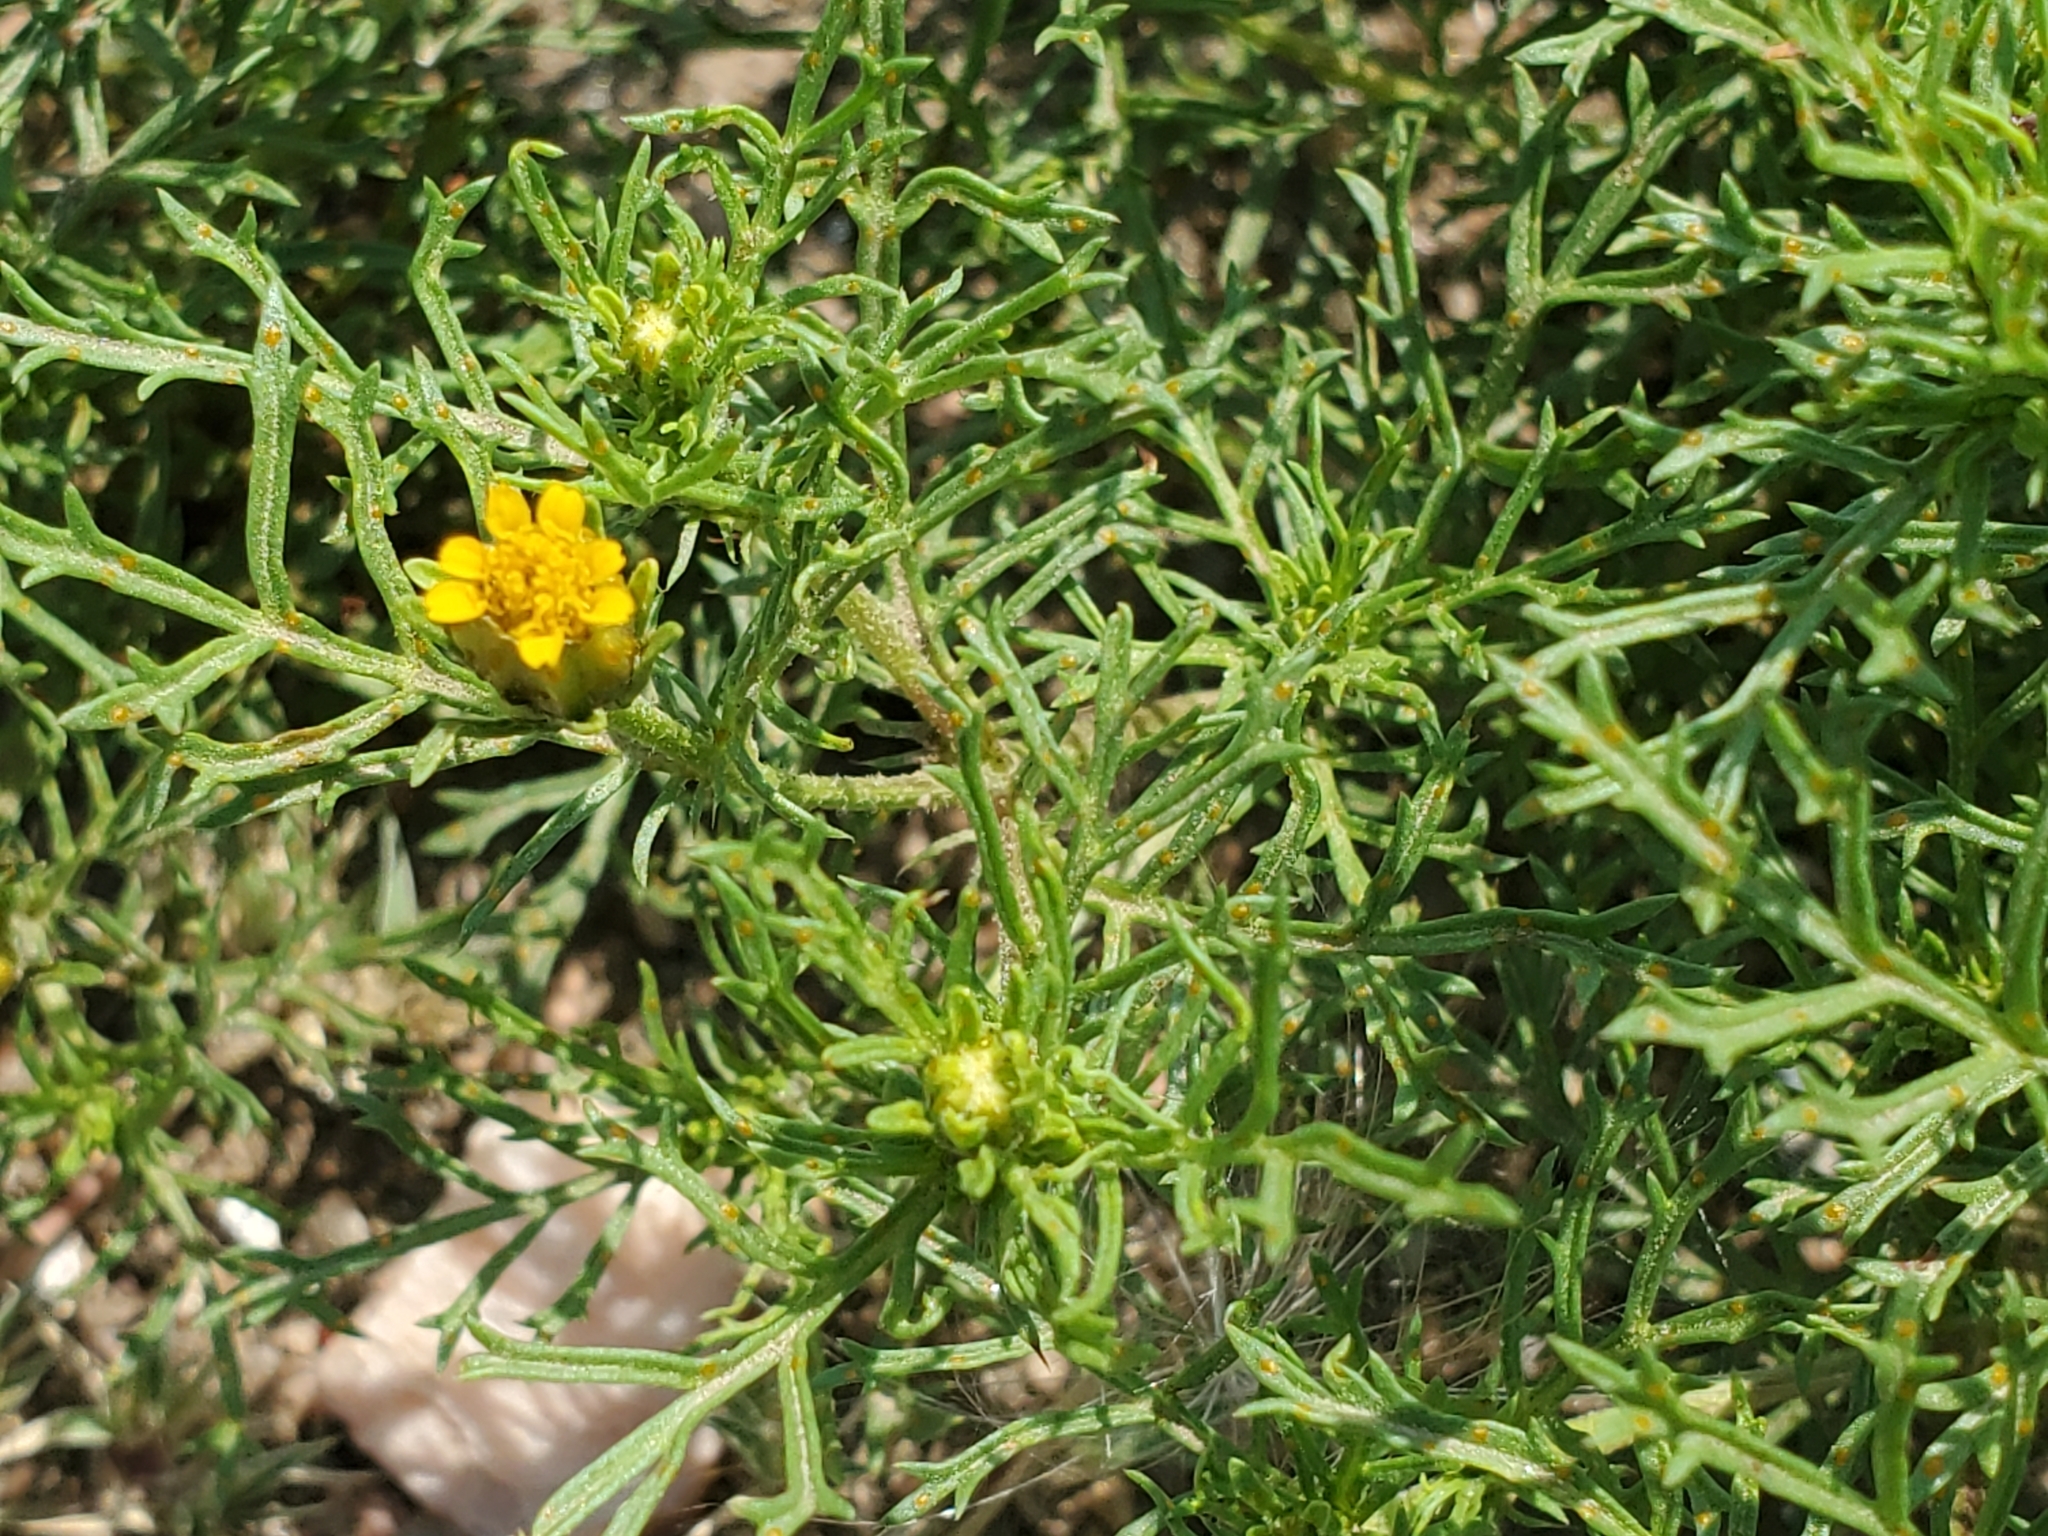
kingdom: Plantae
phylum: Tracheophyta
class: Magnoliopsida
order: Asterales
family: Asteraceae
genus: Dyssodia
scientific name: Dyssodia papposa
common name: Dogweed
